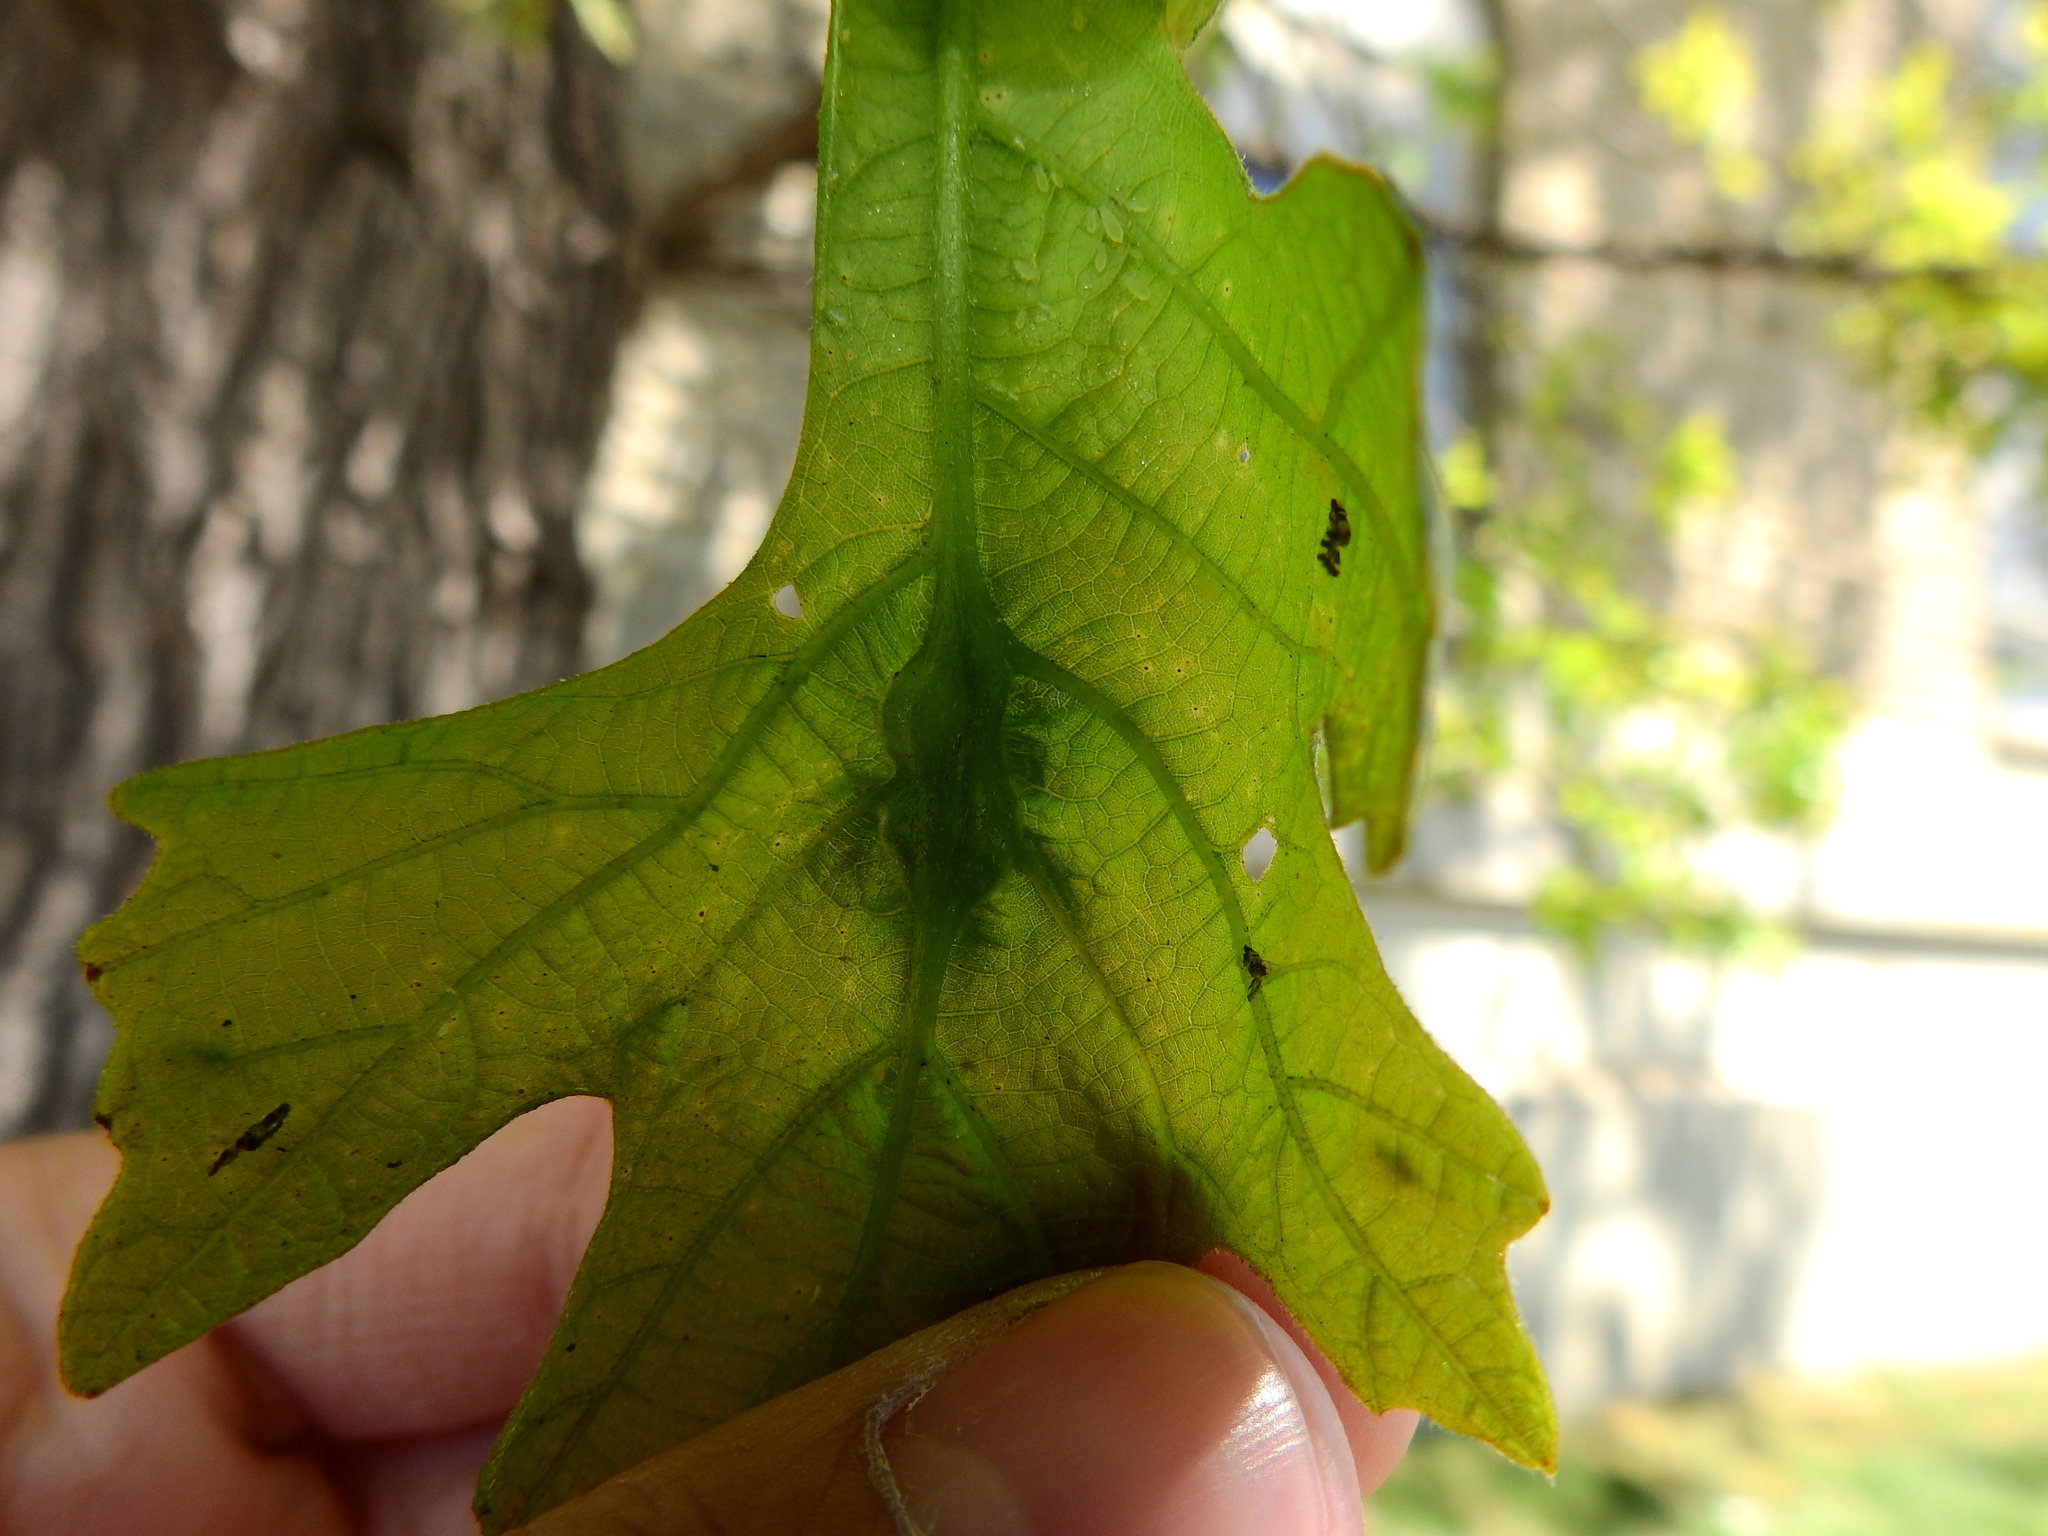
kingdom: Animalia
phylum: Arthropoda
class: Insecta
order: Hymenoptera
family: Cynipidae
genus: Bassettia
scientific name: Bassettia flavipes
